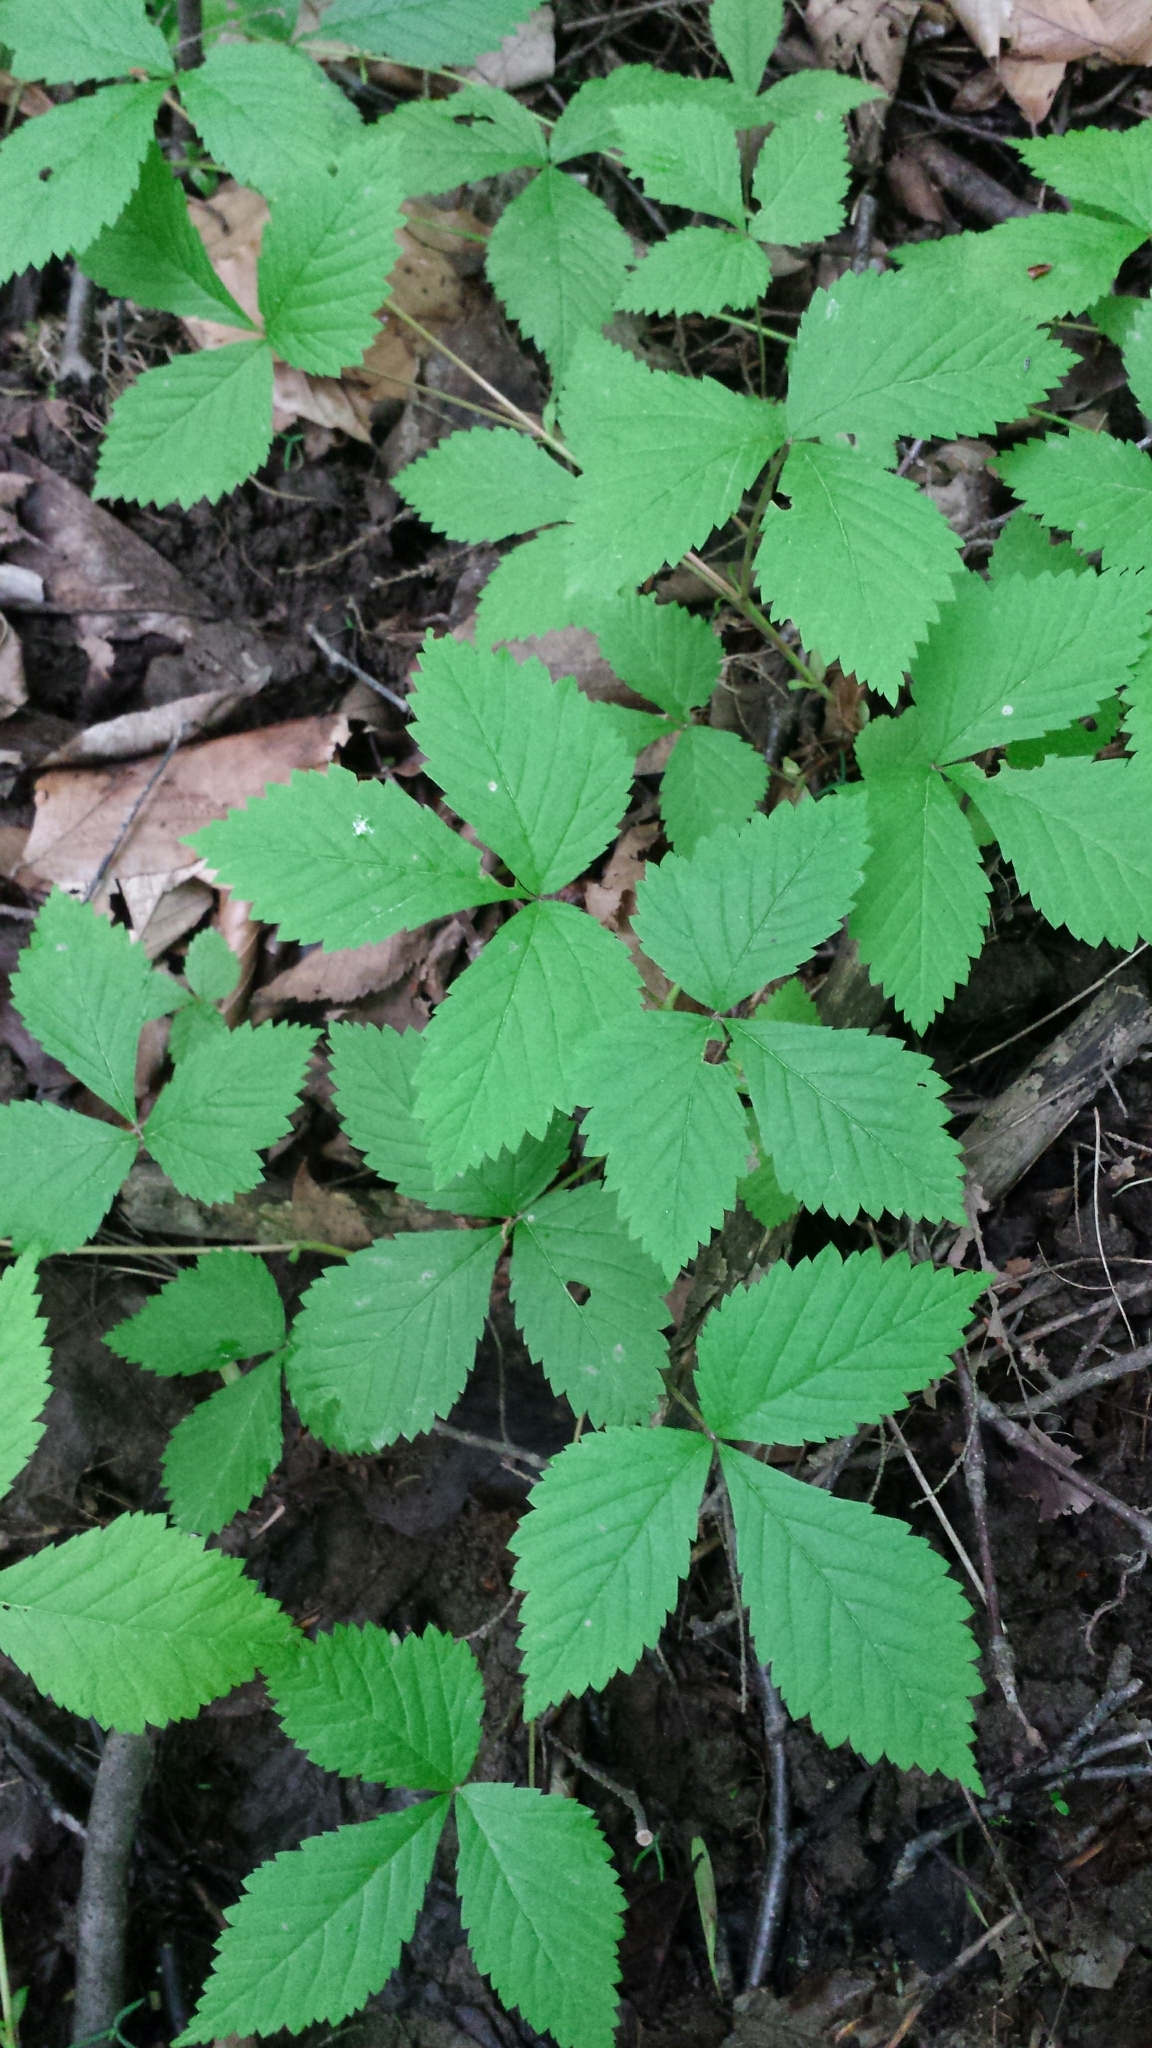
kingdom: Plantae
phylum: Tracheophyta
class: Magnoliopsida
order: Rosales
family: Rosaceae
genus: Rubus
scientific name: Rubus pubescens
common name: Dwarf raspberry
